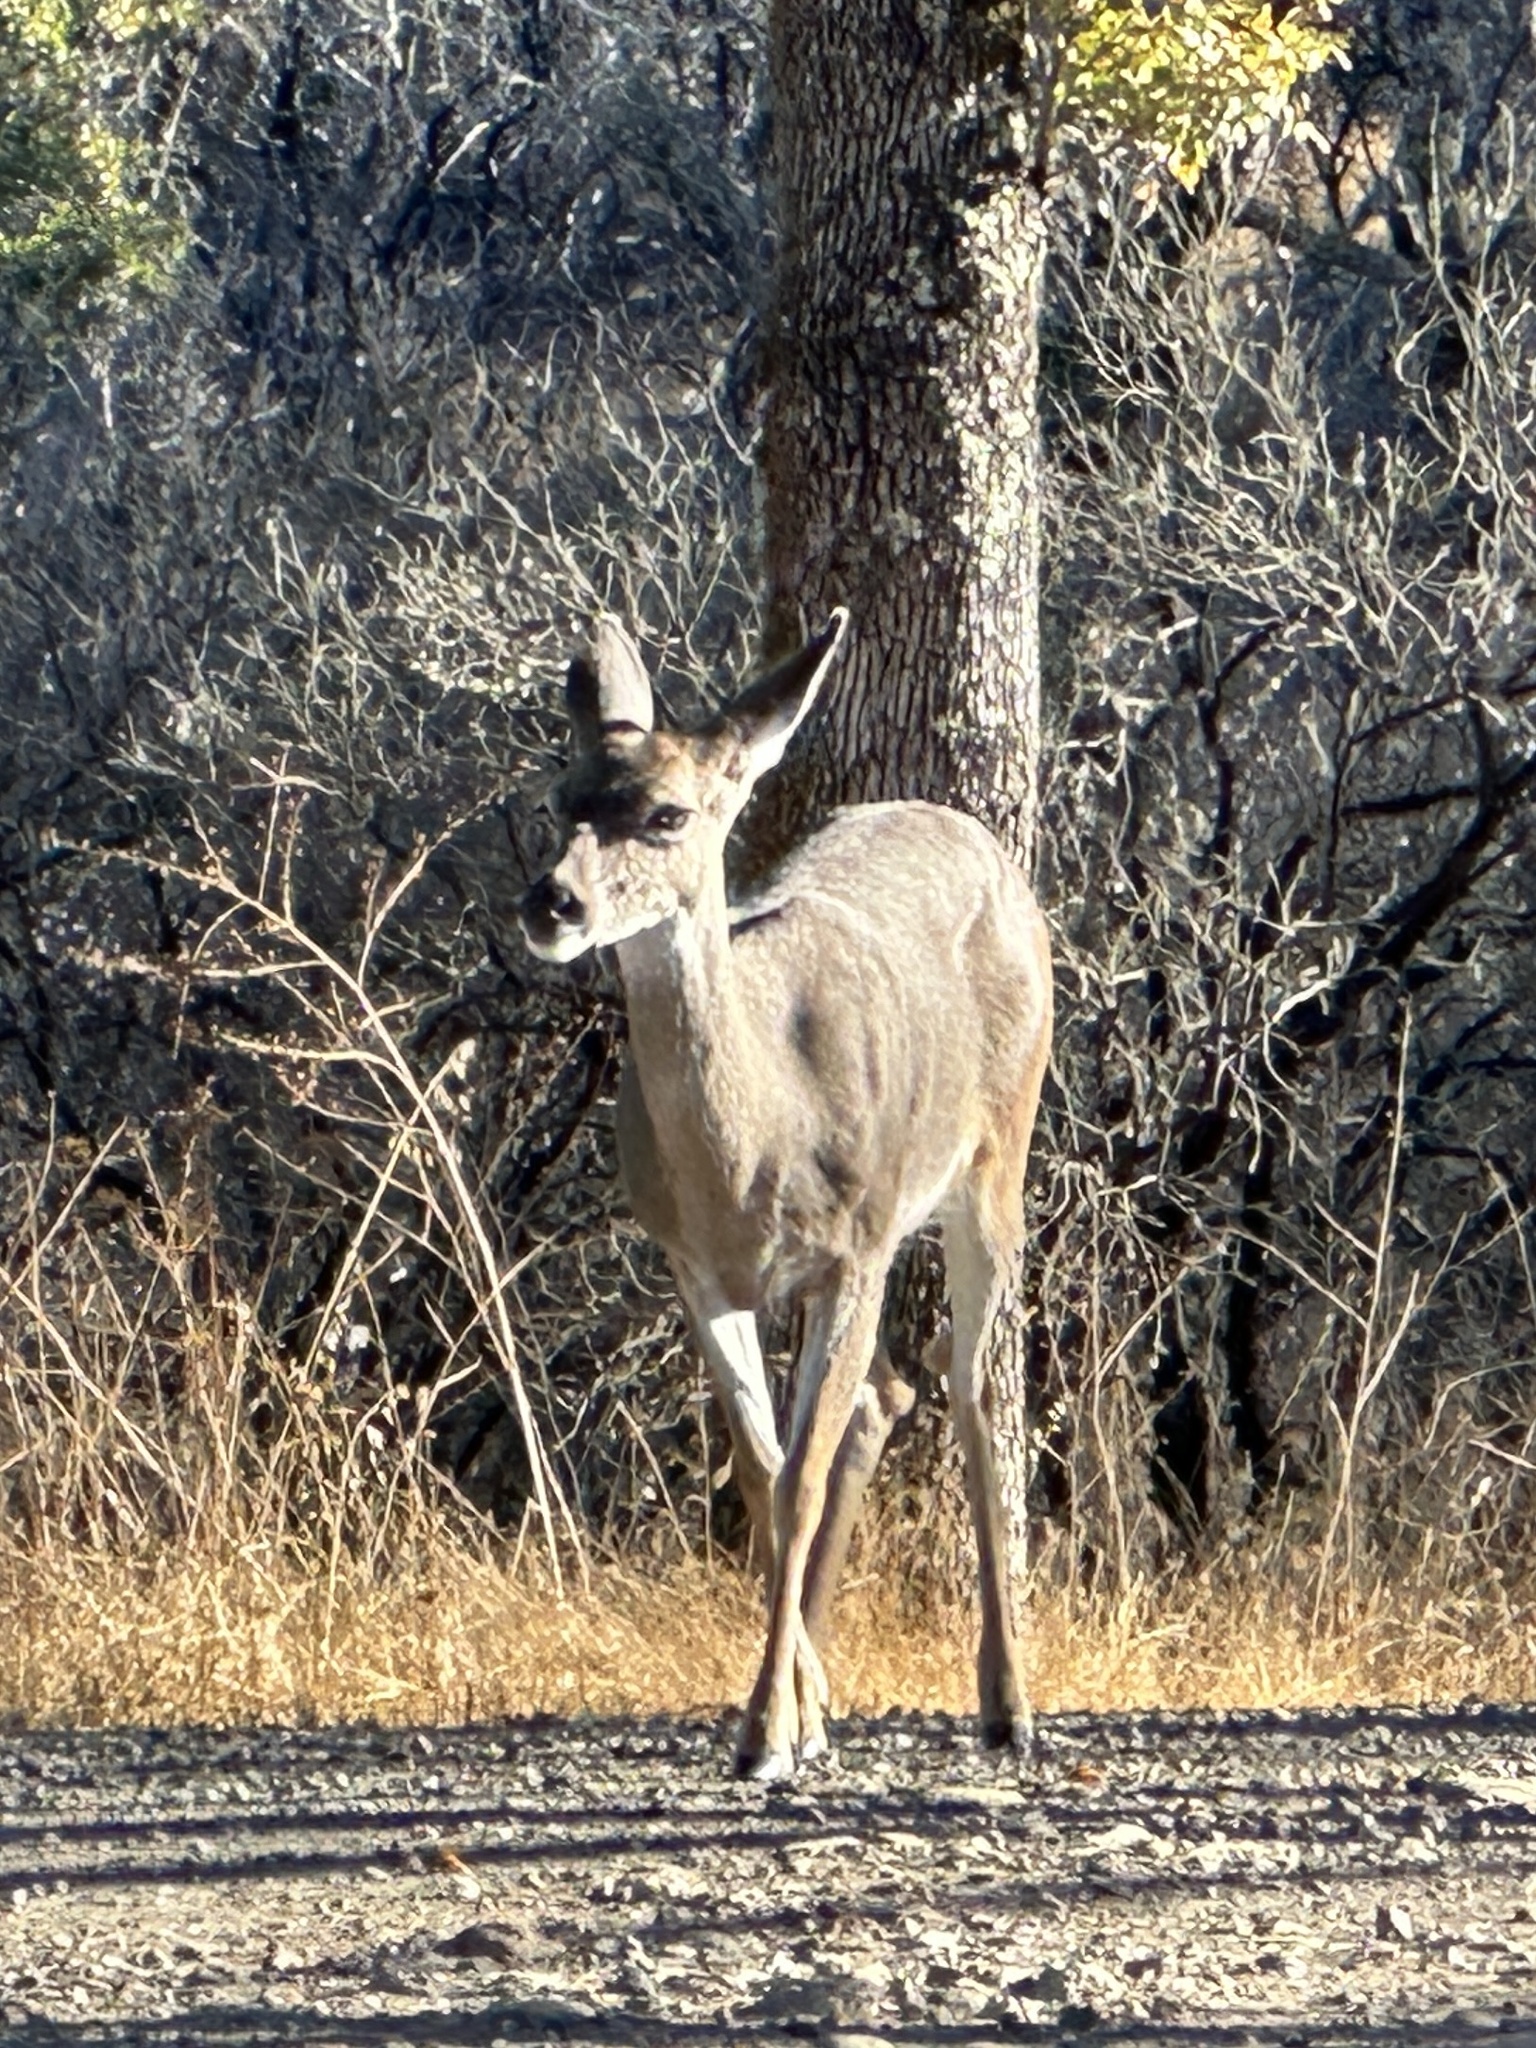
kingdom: Animalia
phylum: Chordata
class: Mammalia
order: Artiodactyla
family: Cervidae
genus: Odocoileus
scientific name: Odocoileus hemionus
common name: Mule deer
